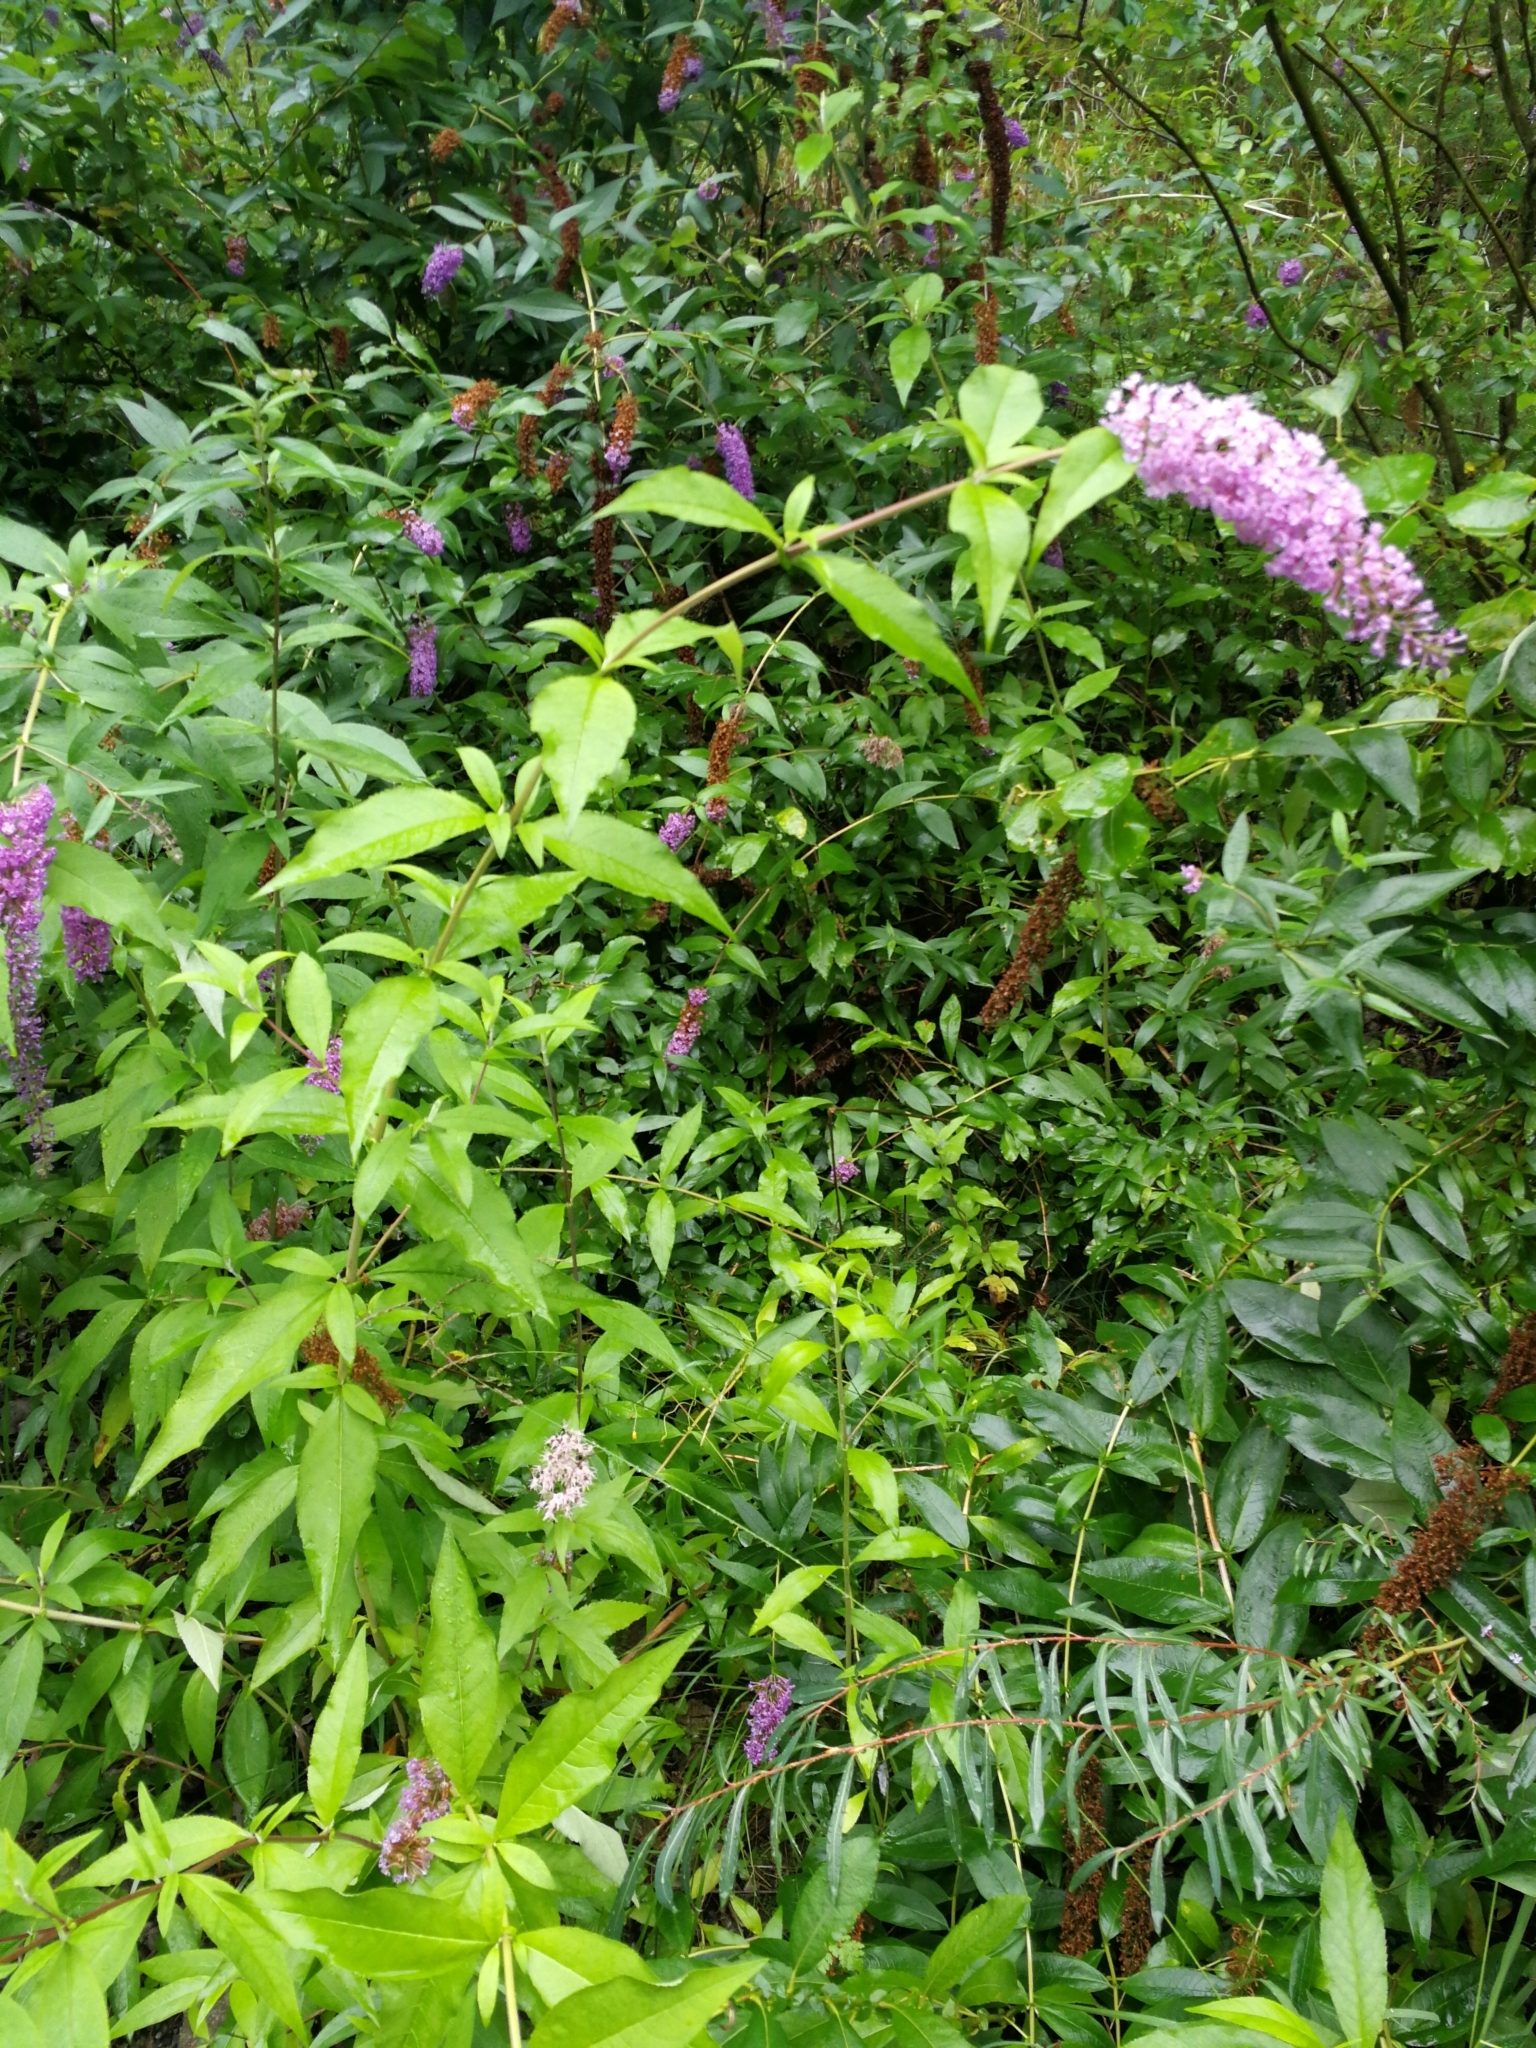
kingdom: Plantae
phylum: Tracheophyta
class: Magnoliopsida
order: Lamiales
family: Scrophulariaceae
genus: Buddleja
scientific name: Buddleja davidii
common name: Butterfly-bush
